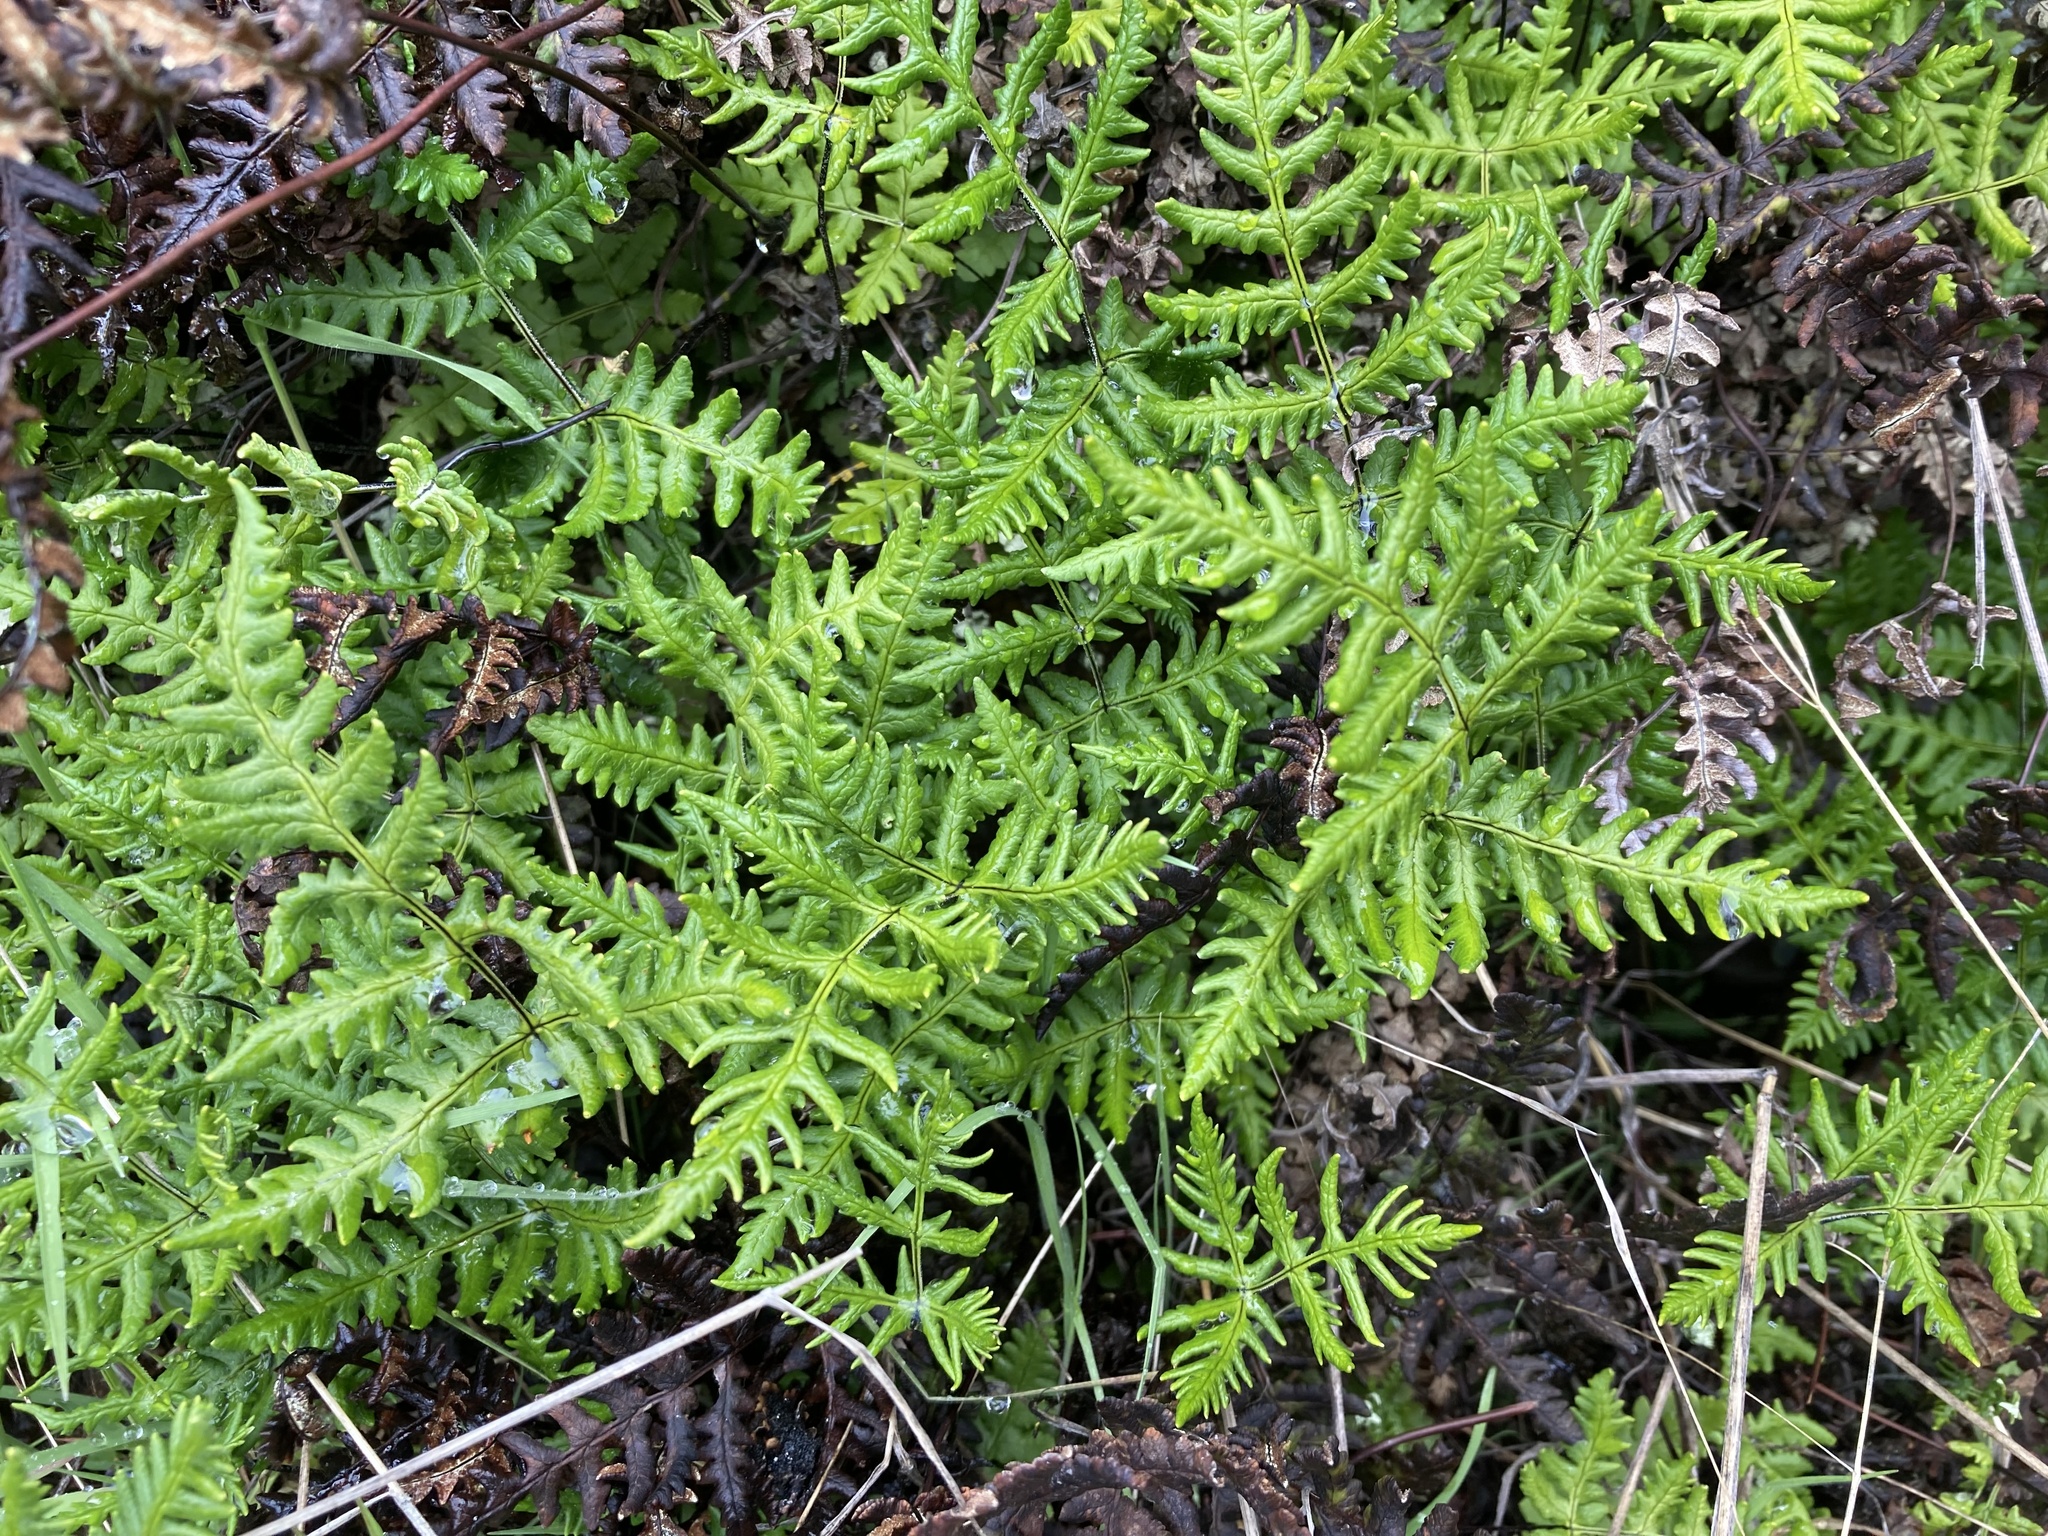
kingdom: Plantae
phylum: Tracheophyta
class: Polypodiopsida
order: Polypodiales
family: Pteridaceae
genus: Pentagramma
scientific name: Pentagramma triangularis
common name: Gold fern
